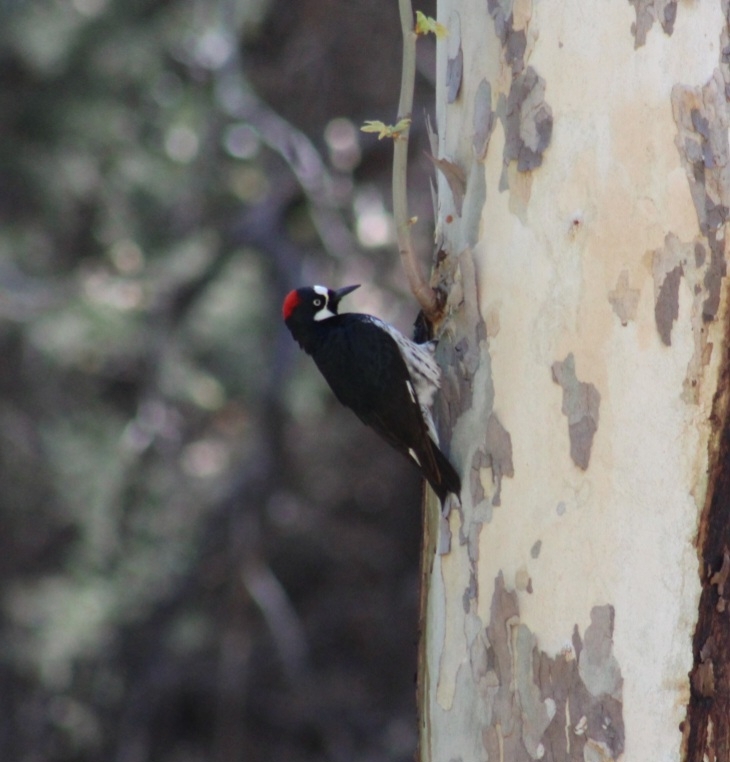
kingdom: Animalia
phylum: Chordata
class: Aves
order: Piciformes
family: Picidae
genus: Melanerpes
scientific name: Melanerpes formicivorus
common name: Acorn woodpecker
